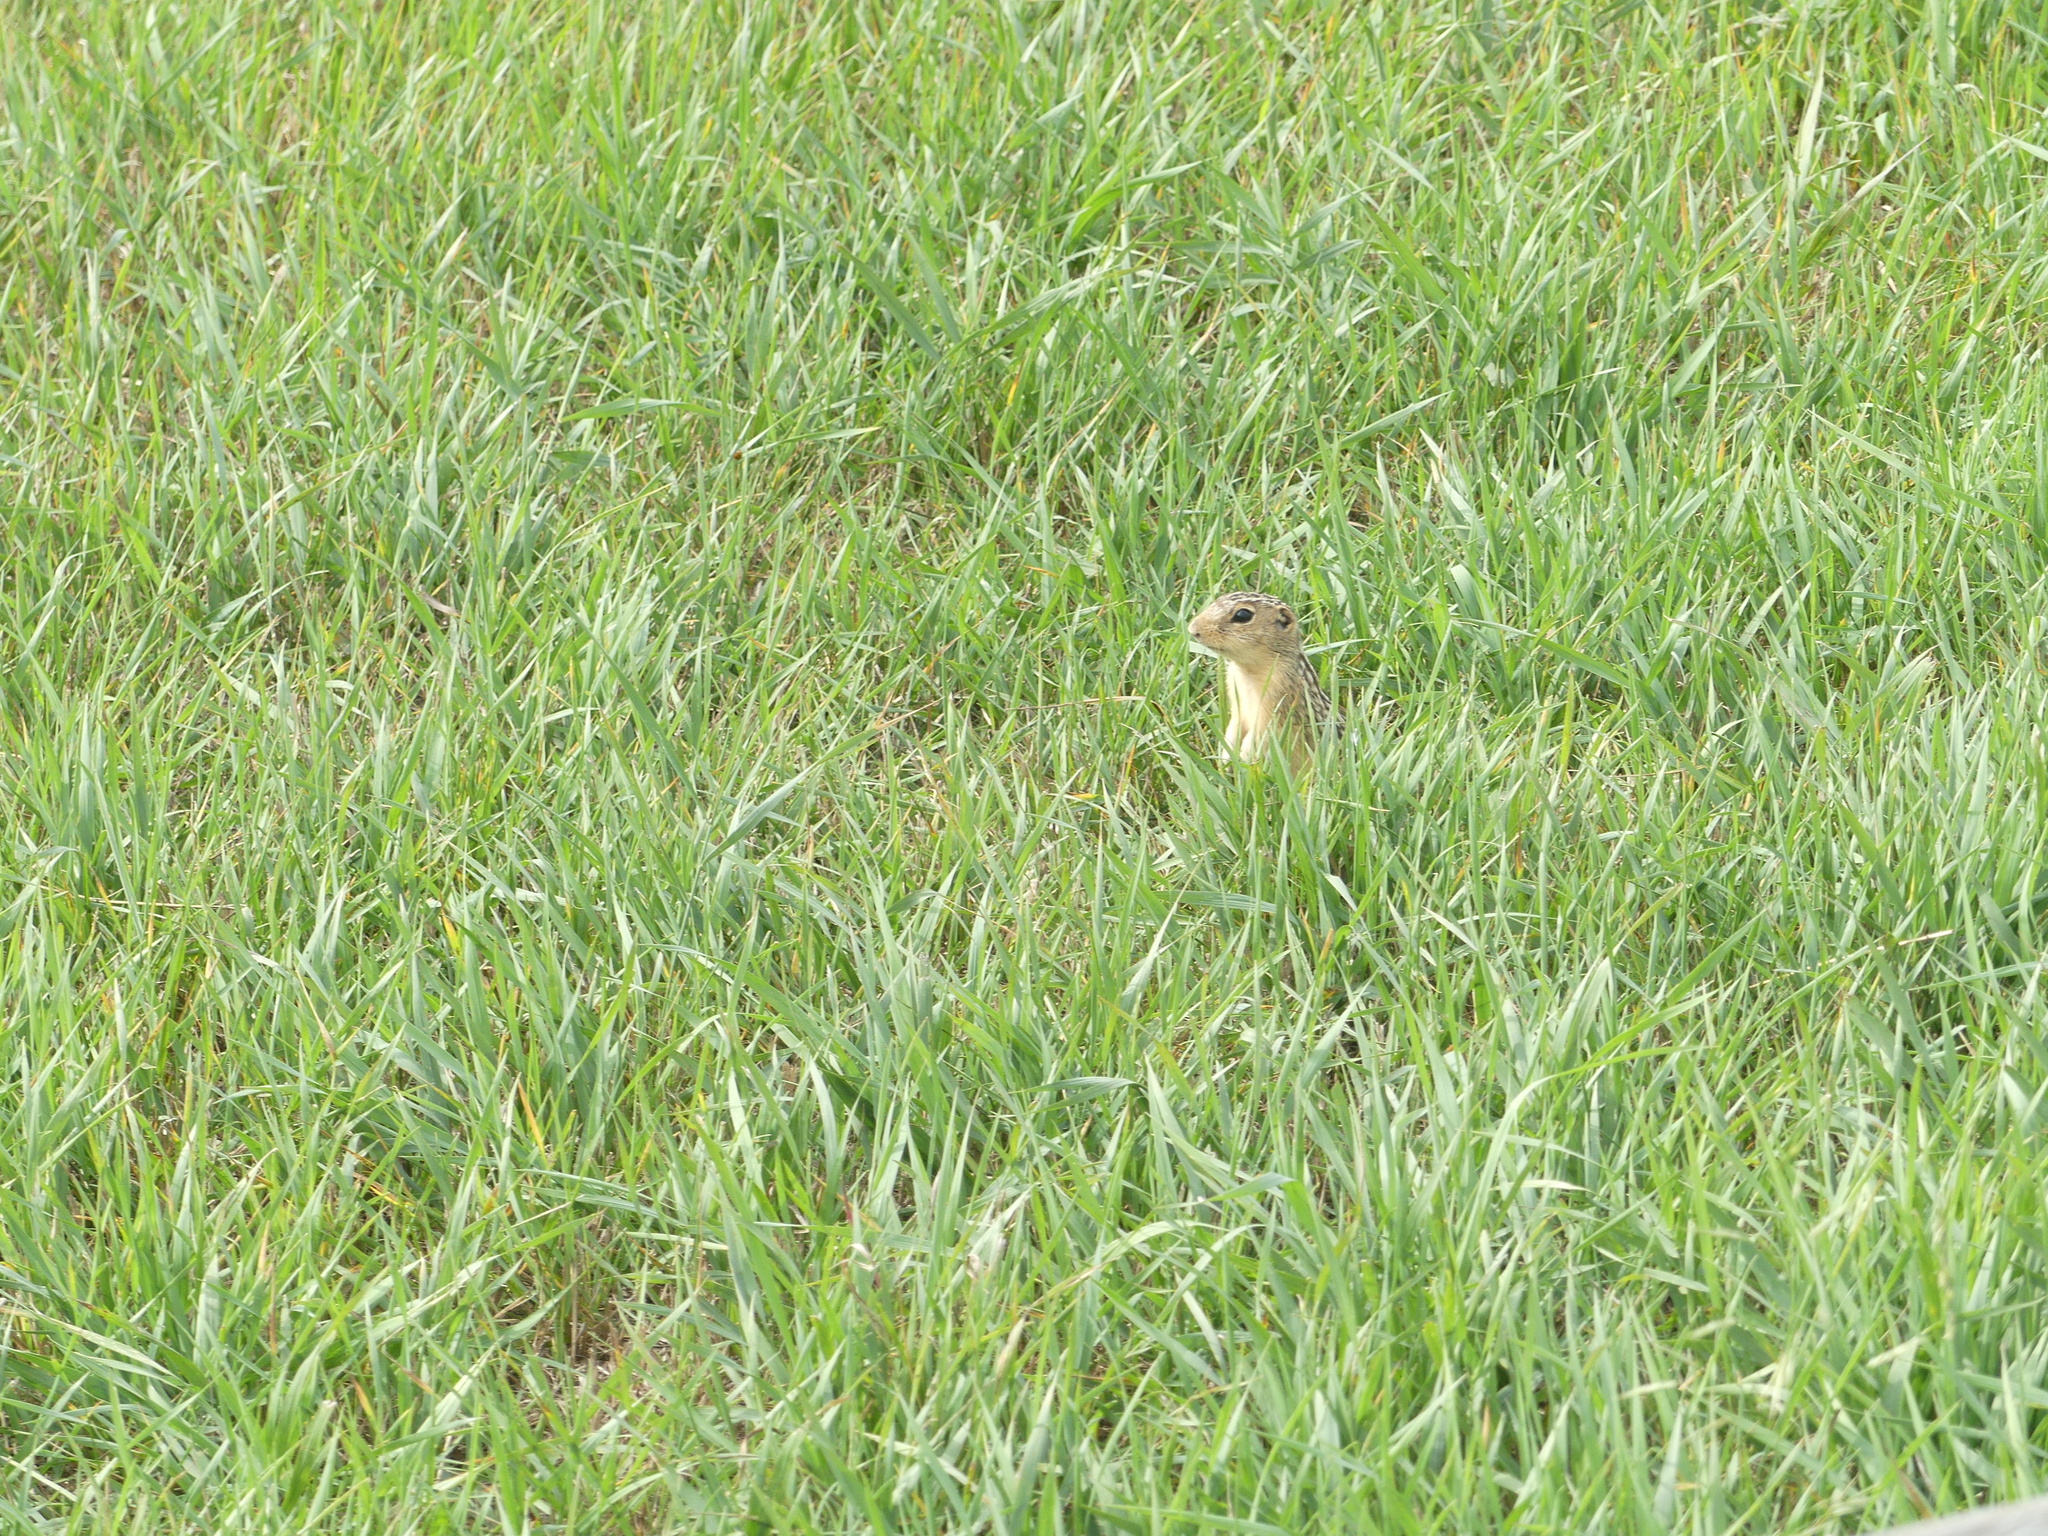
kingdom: Animalia
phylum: Chordata
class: Mammalia
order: Rodentia
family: Sciuridae
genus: Ictidomys
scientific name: Ictidomys tridecemlineatus
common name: Thirteen-lined ground squirrel
